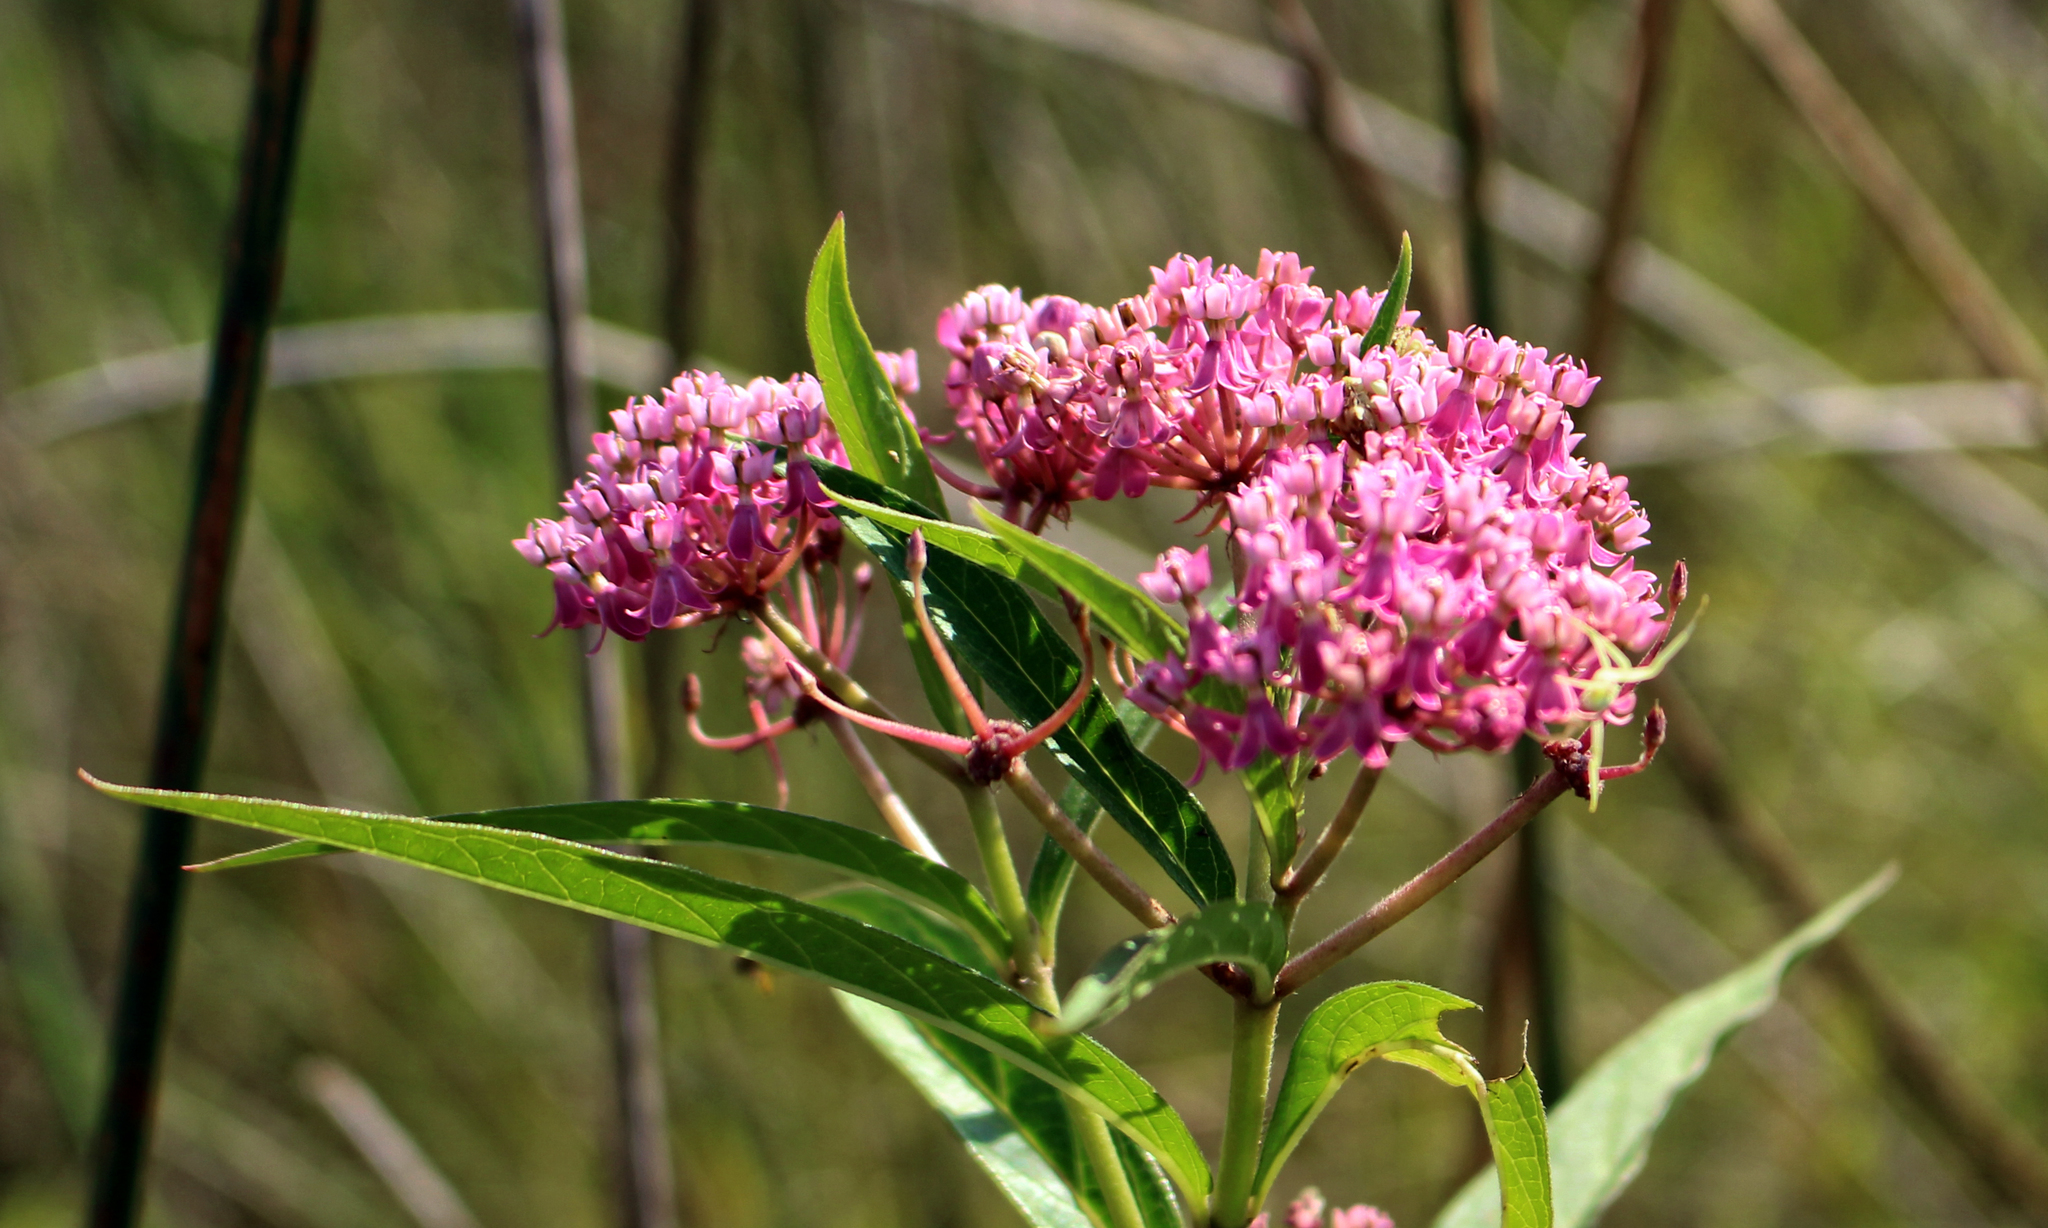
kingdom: Plantae
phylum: Tracheophyta
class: Magnoliopsida
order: Gentianales
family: Apocynaceae
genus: Asclepias
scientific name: Asclepias incarnata
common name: Swamp milkweed
